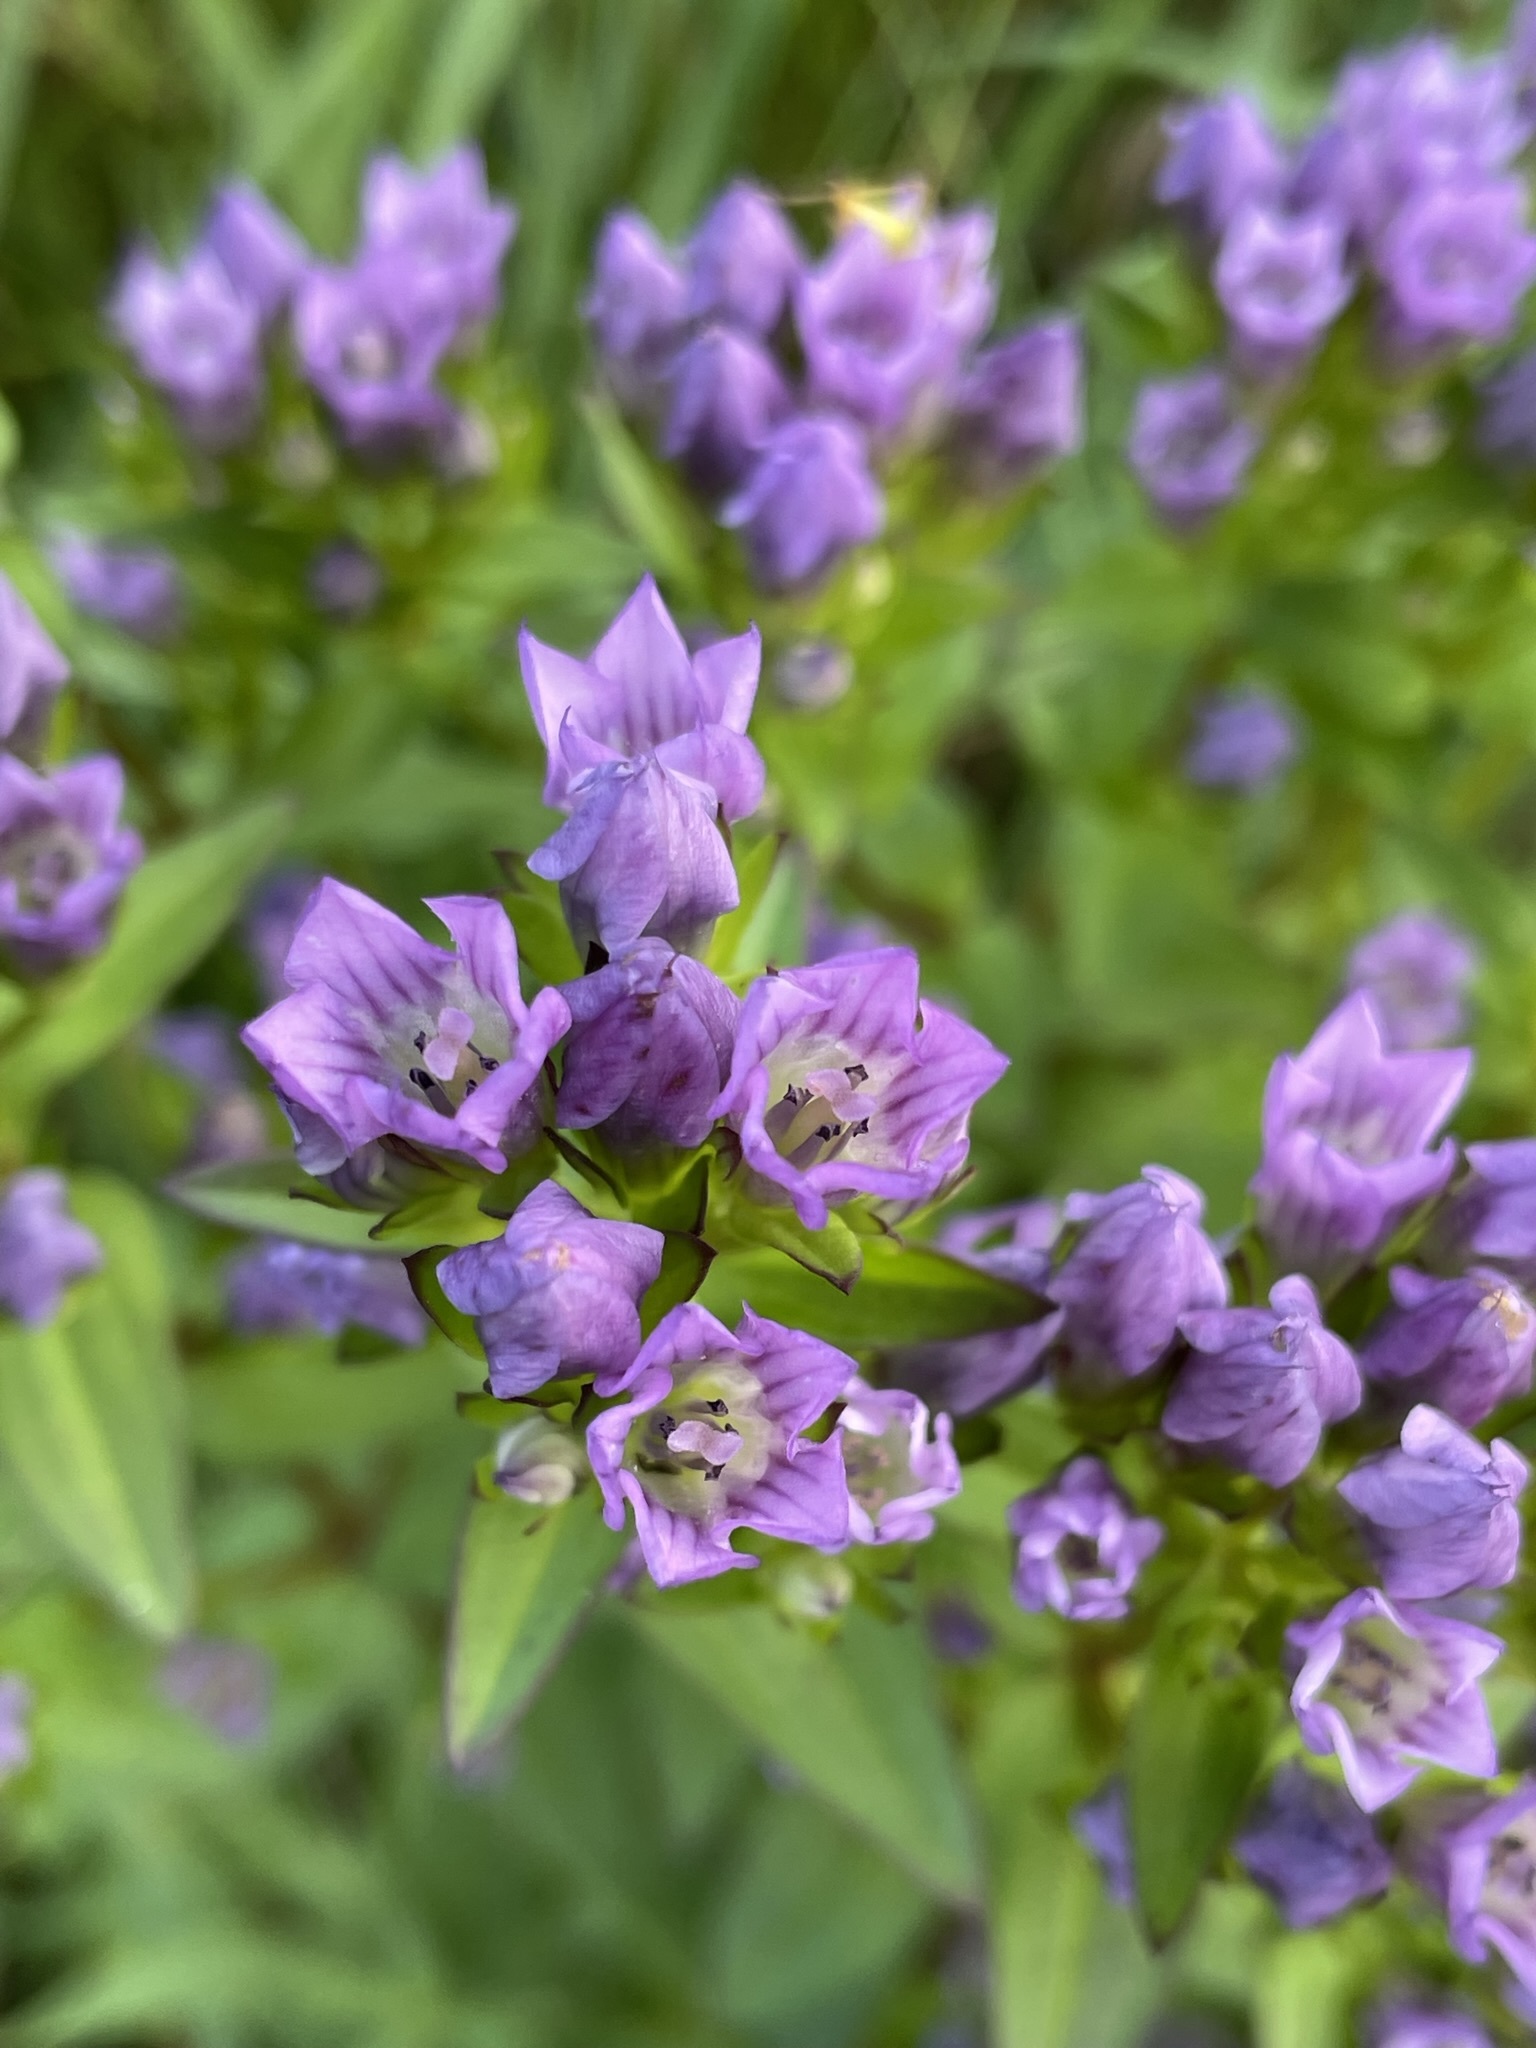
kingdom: Plantae
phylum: Tracheophyta
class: Magnoliopsida
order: Gentianales
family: Gentianaceae
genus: Gentianella
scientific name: Gentianella quinquefolia
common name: Agueweed
